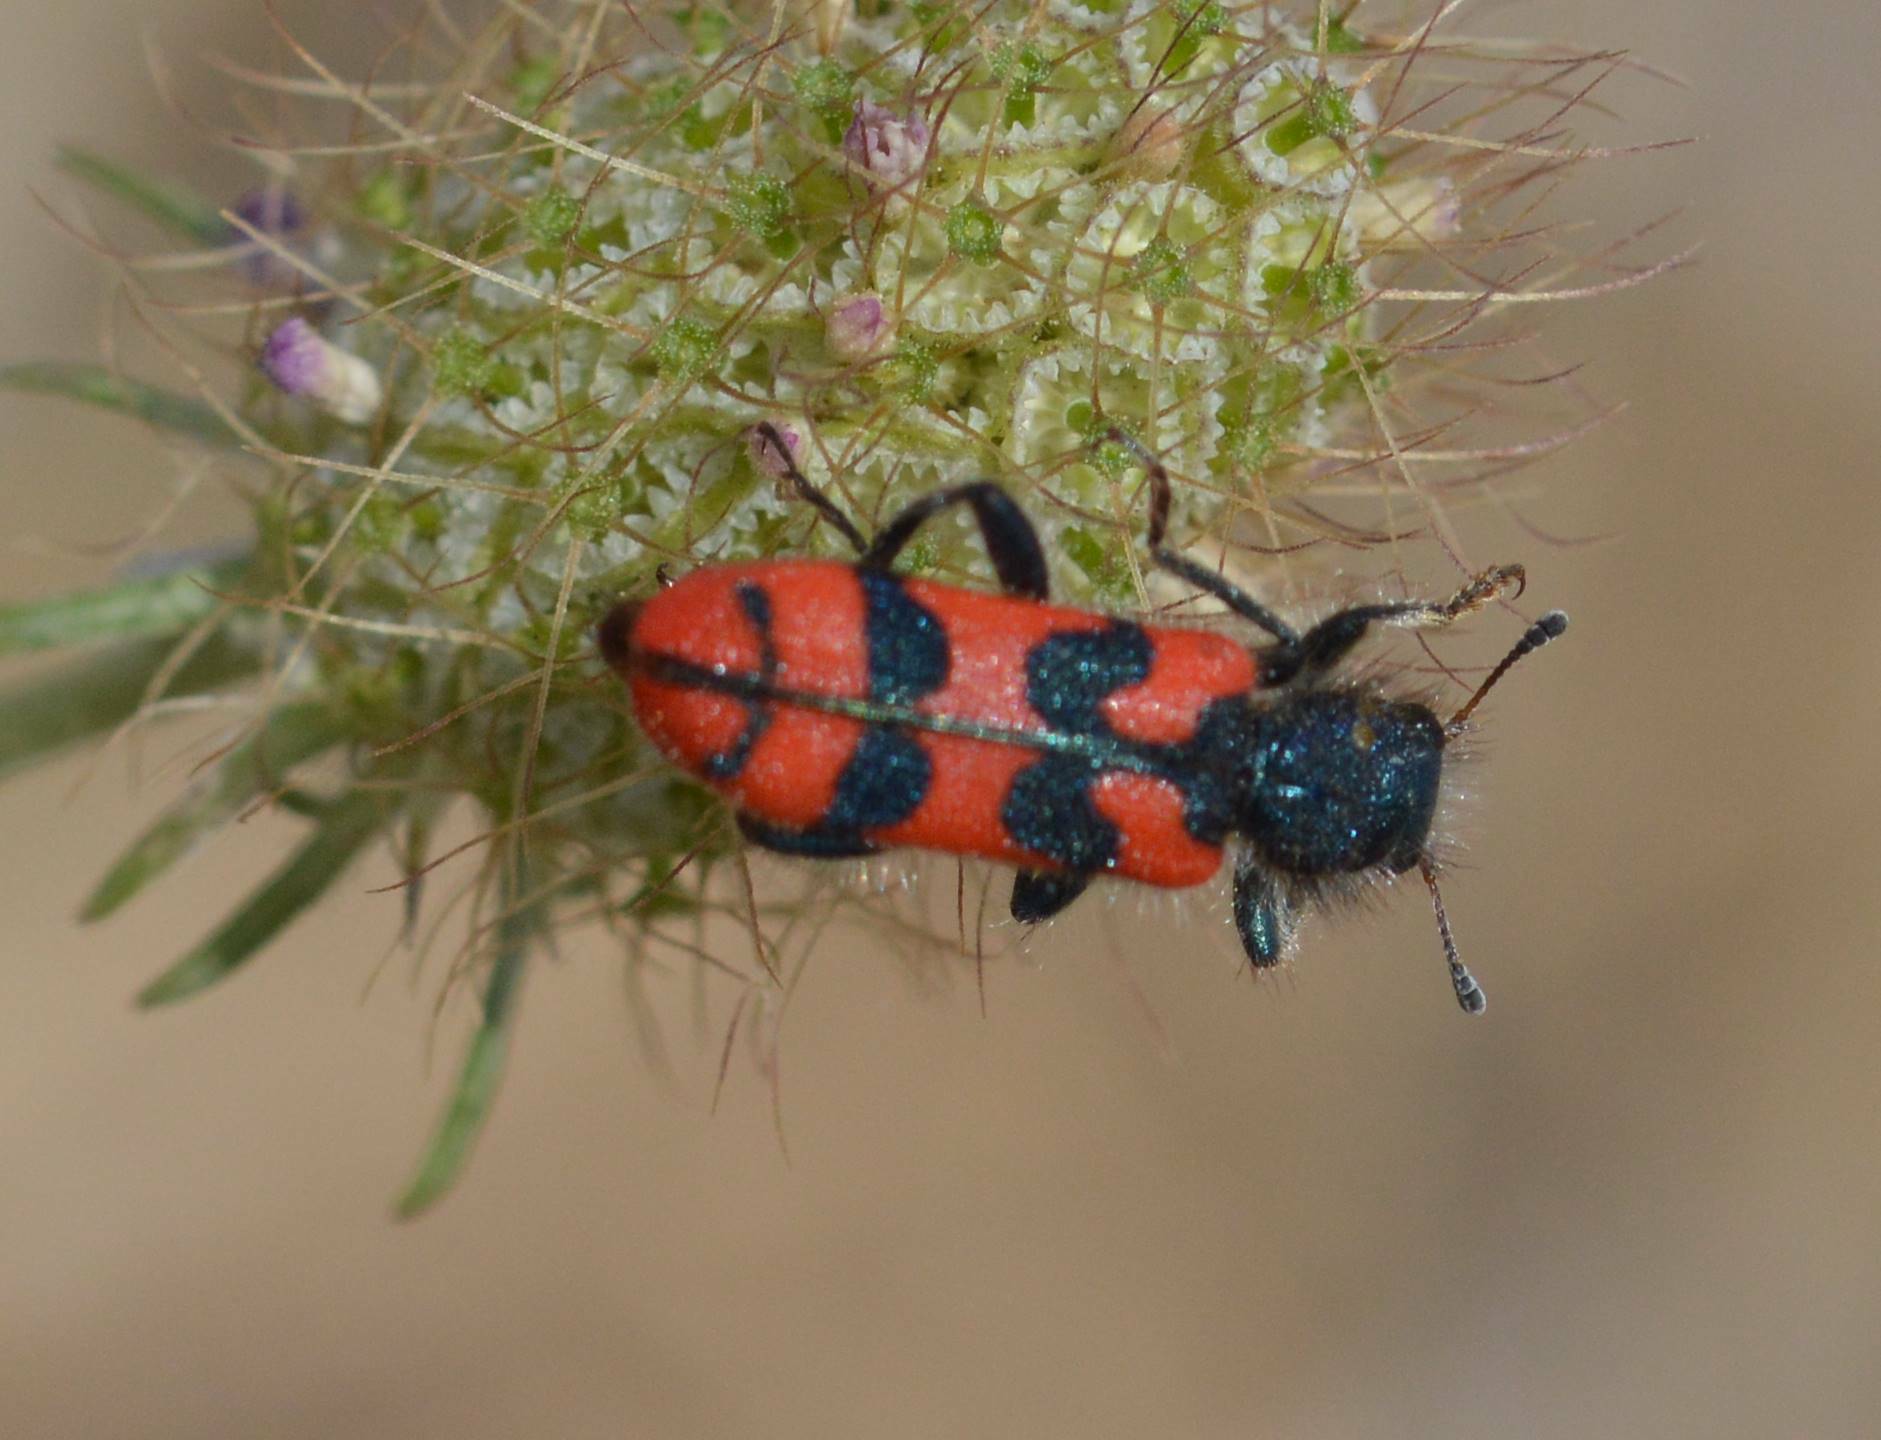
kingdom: Animalia
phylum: Arthropoda
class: Insecta
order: Coleoptera
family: Cleridae
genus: Trichodes
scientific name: Trichodes umbellatarum
